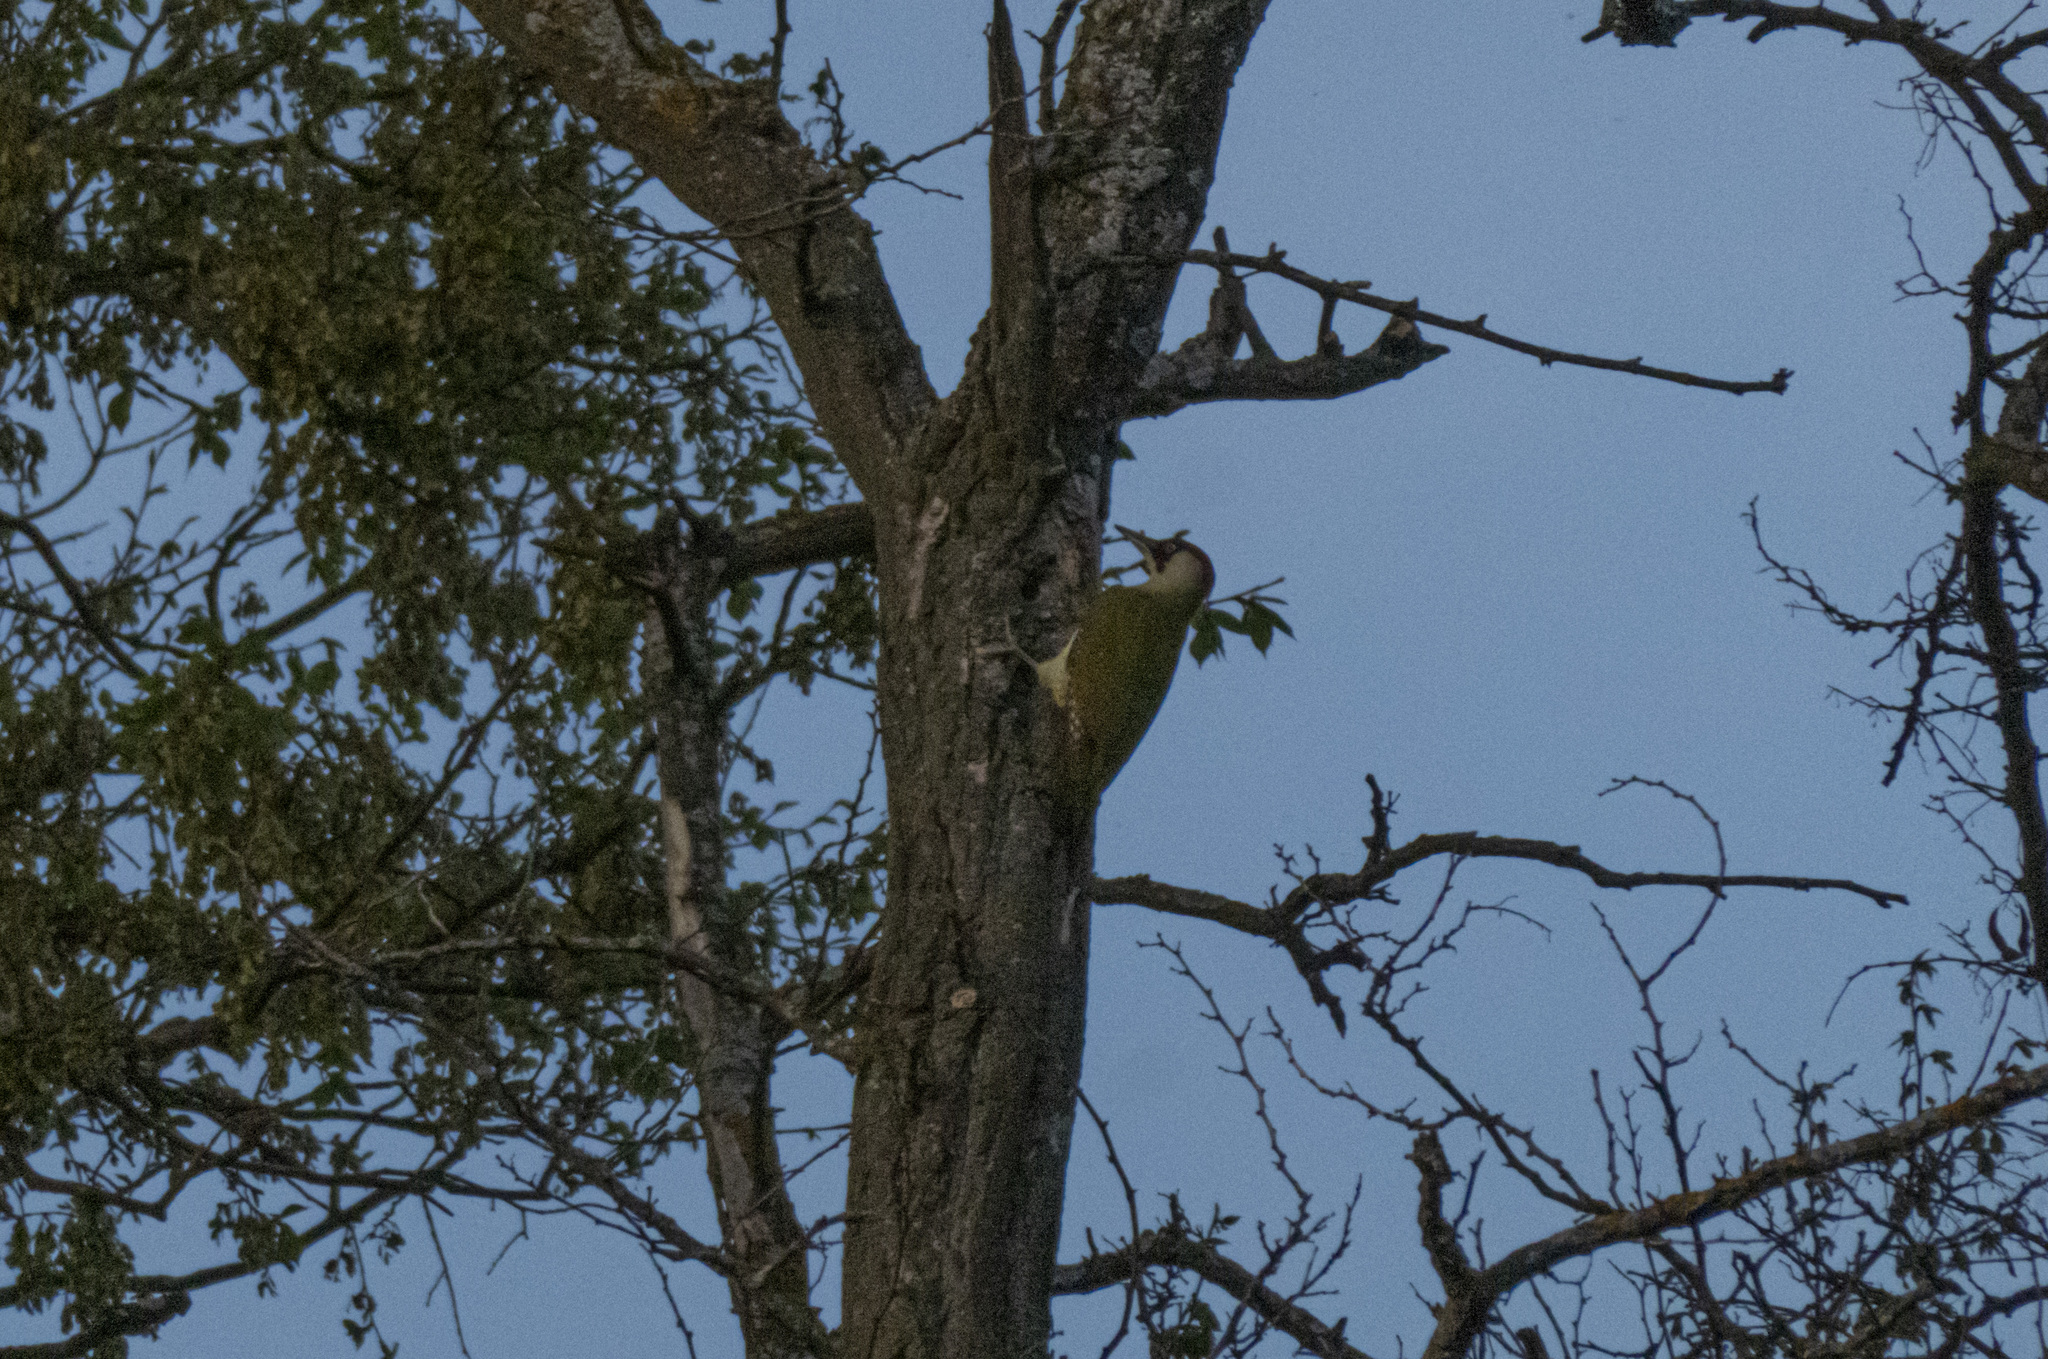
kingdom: Animalia
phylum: Chordata
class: Aves
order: Piciformes
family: Picidae
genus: Picus
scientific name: Picus viridis
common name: European green woodpecker
